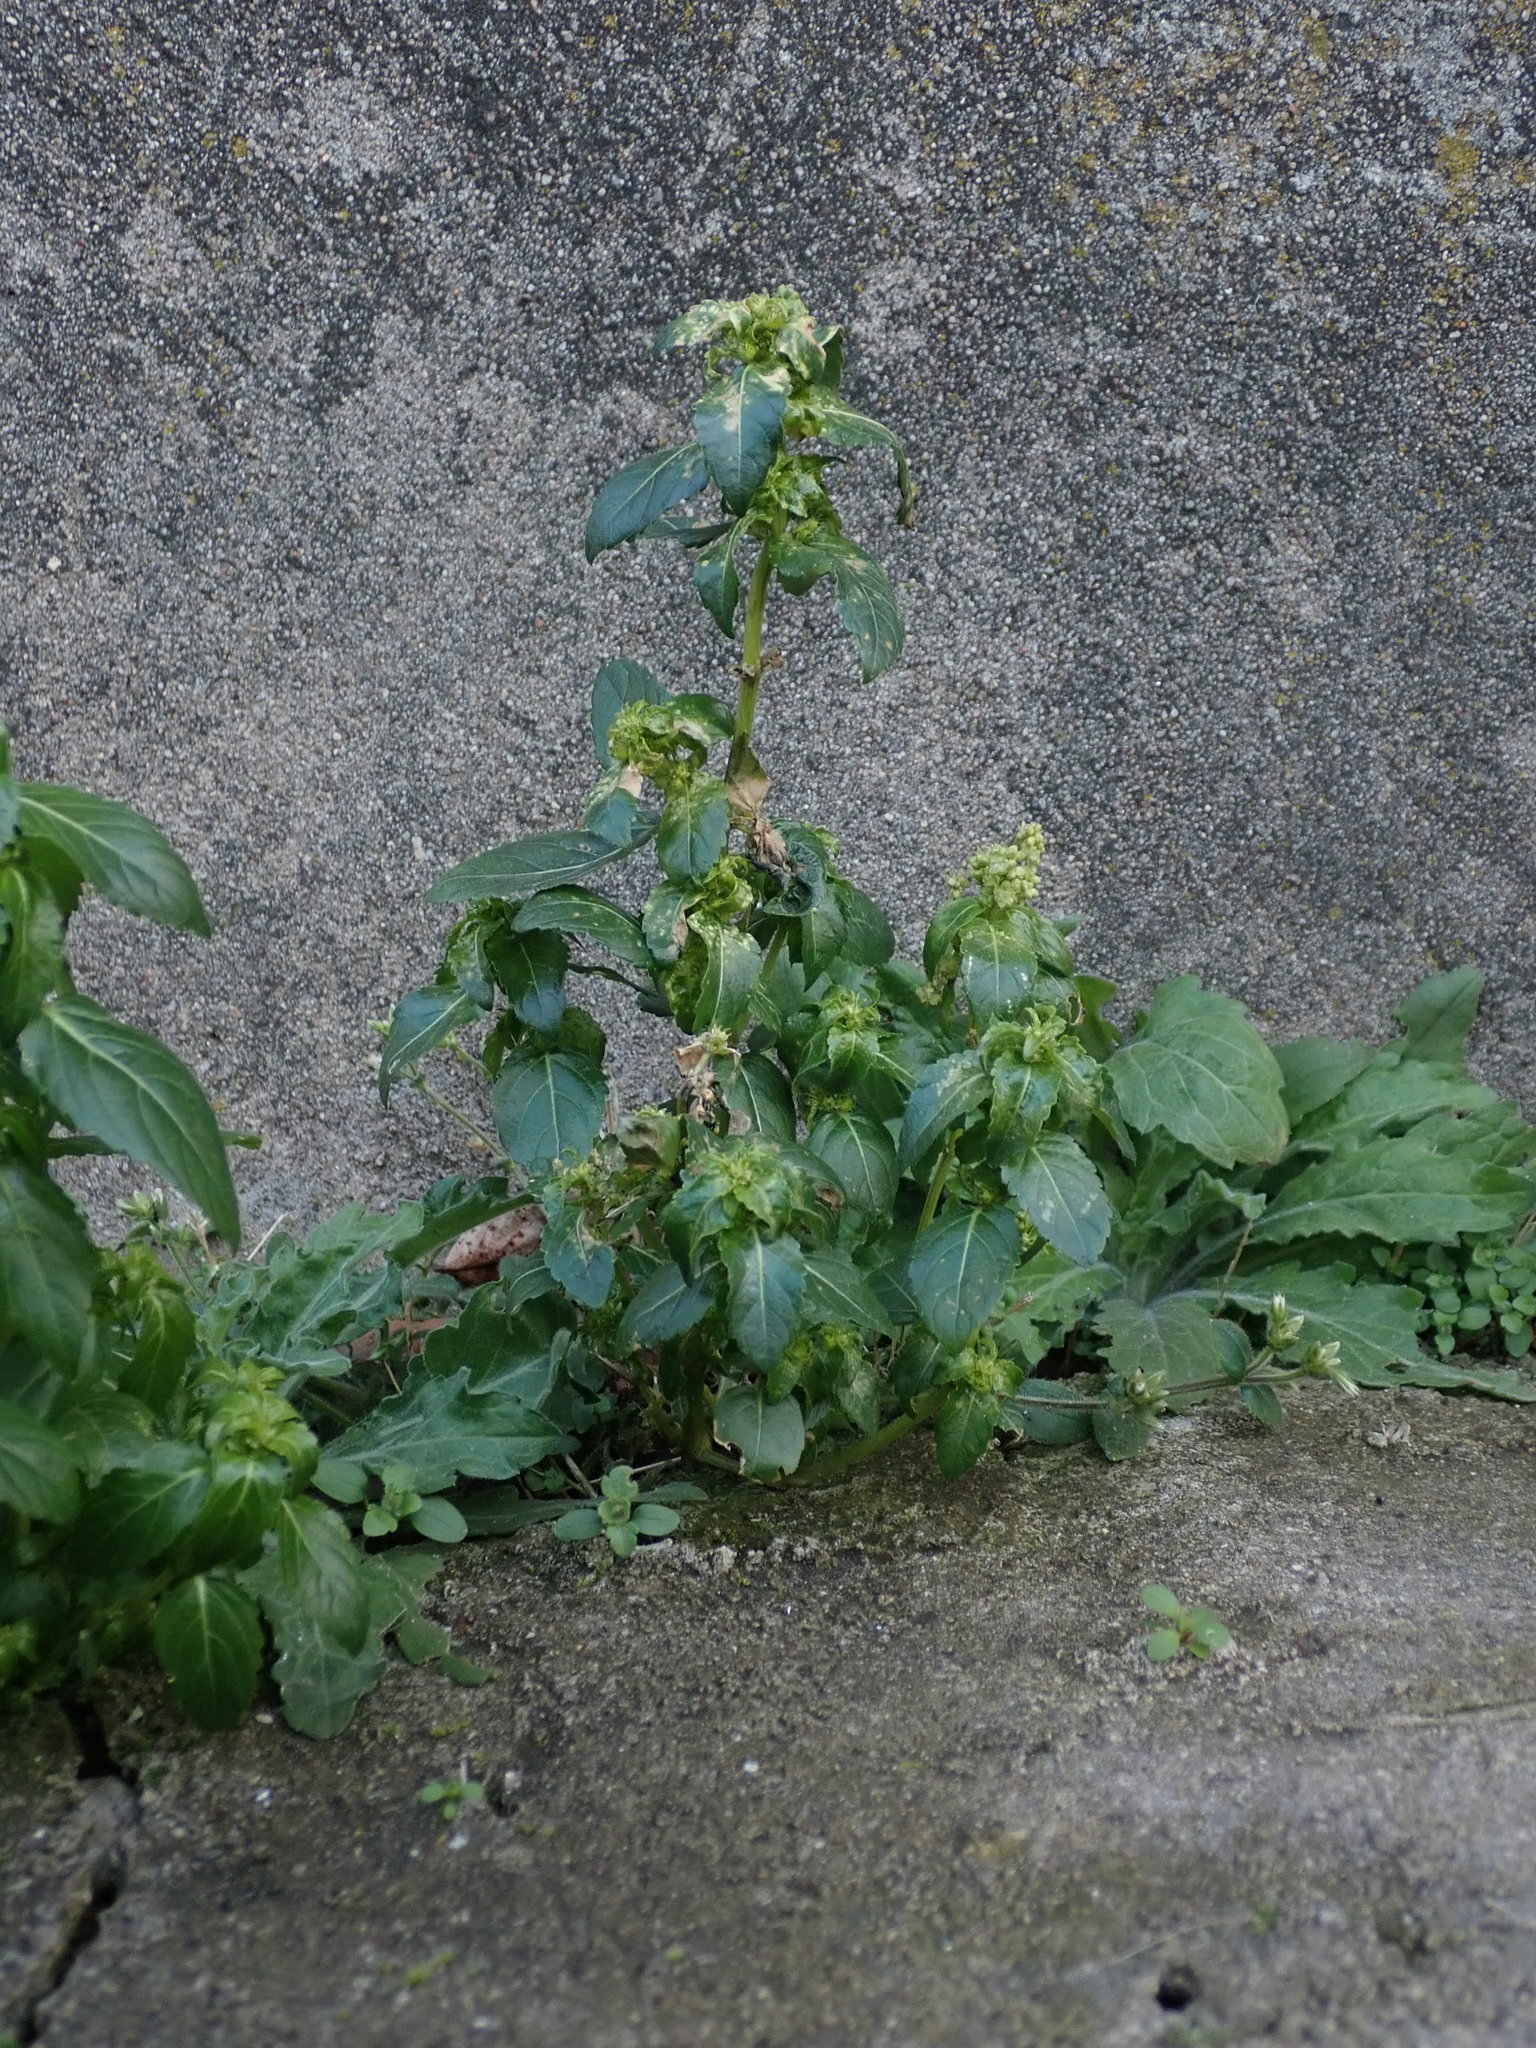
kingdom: Plantae
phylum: Tracheophyta
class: Magnoliopsida
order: Malpighiales
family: Euphorbiaceae
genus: Mercurialis
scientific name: Mercurialis annua
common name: Annual mercury
